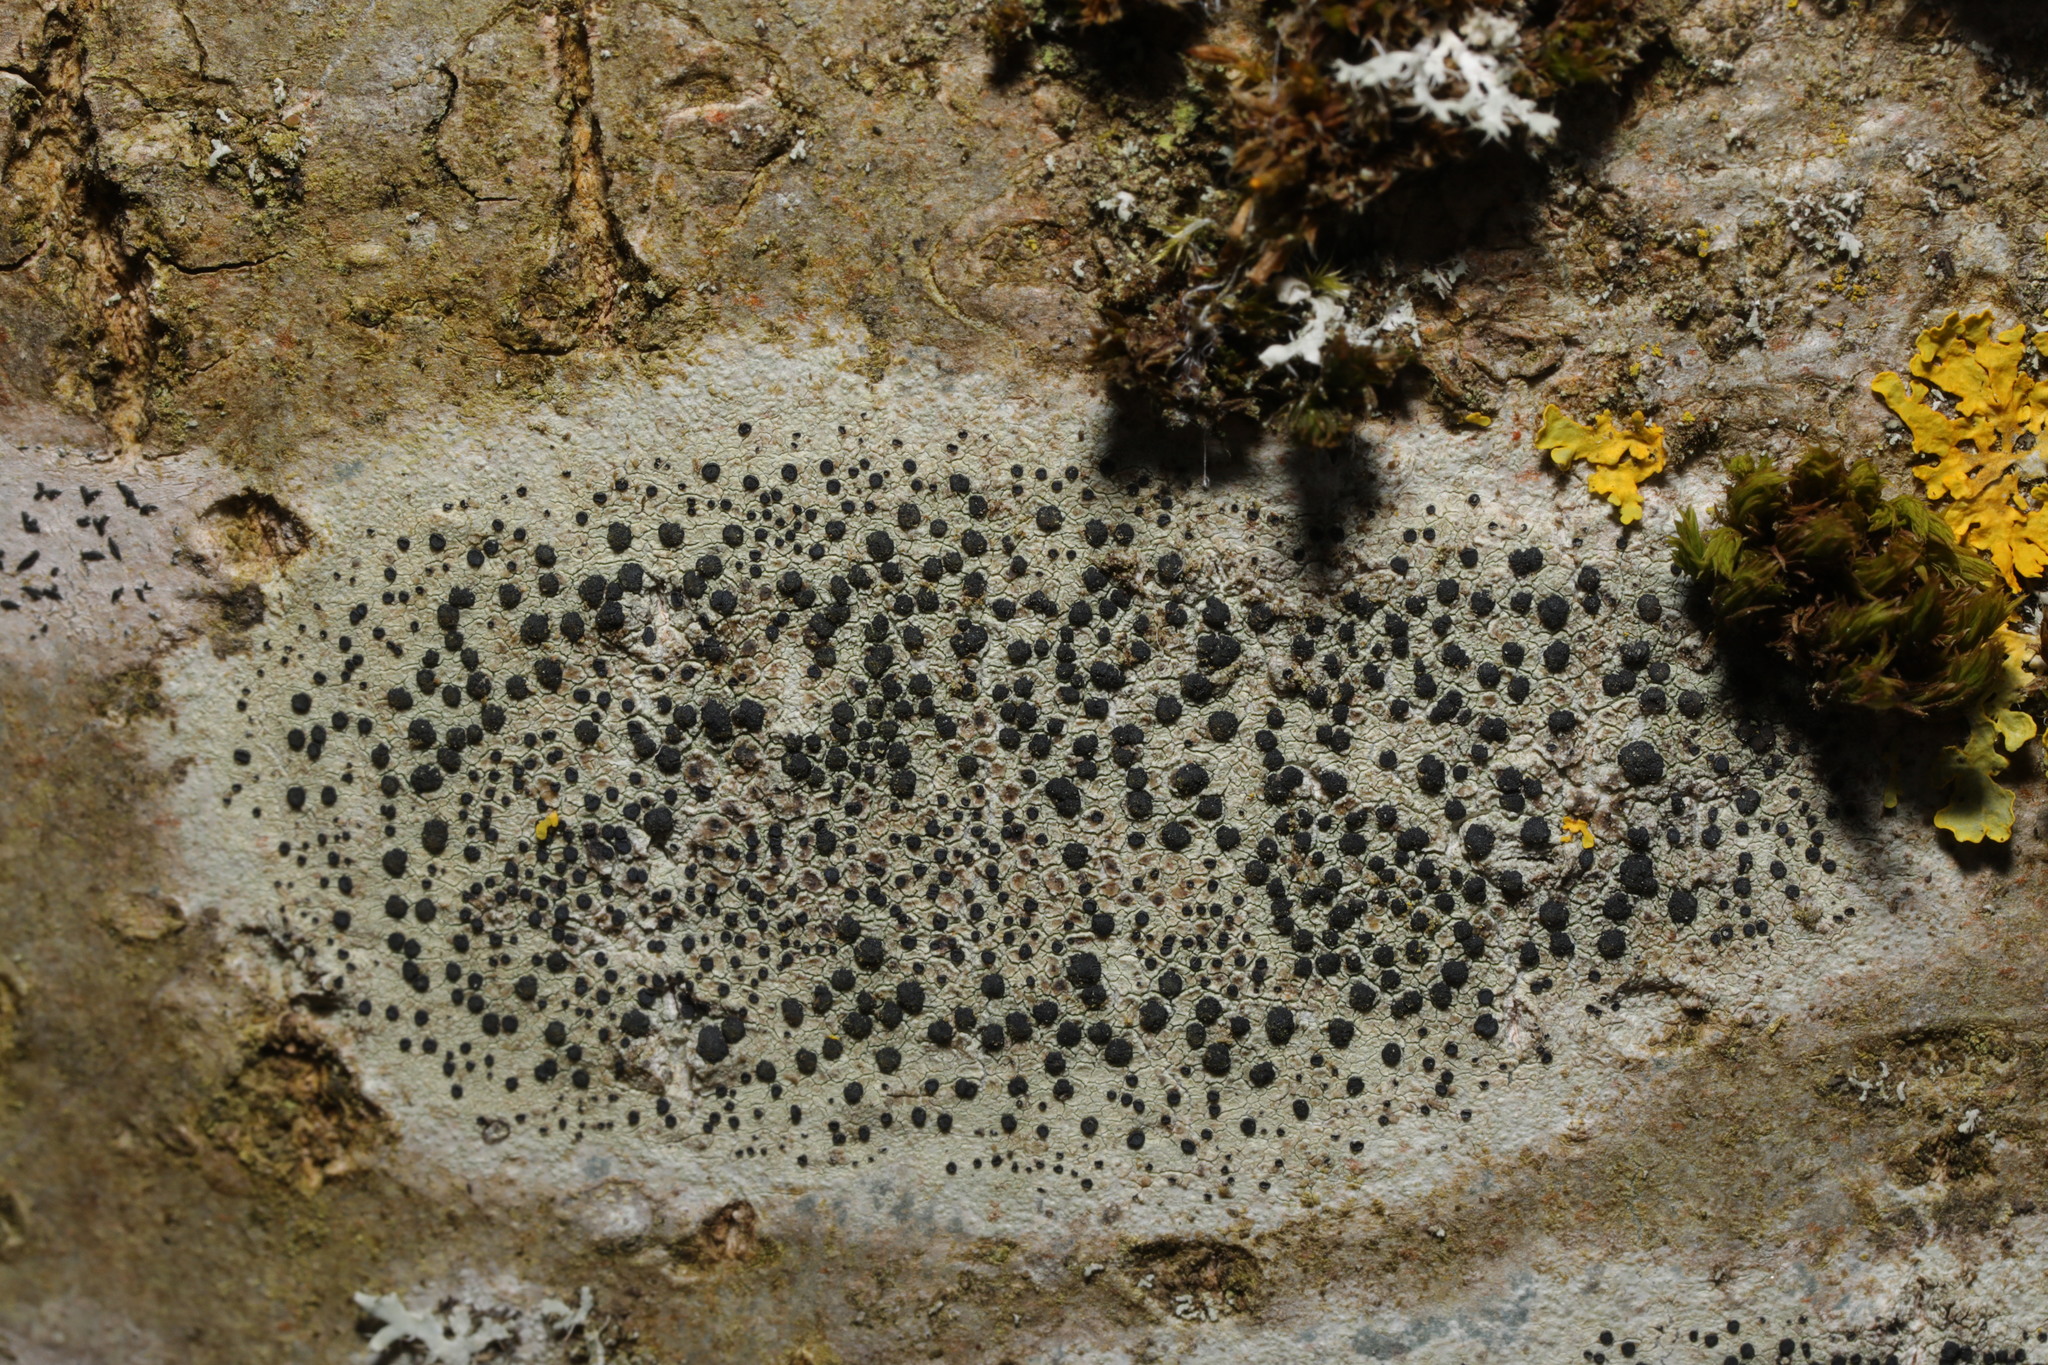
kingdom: Fungi
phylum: Ascomycota
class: Lecanoromycetes
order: Lecanorales
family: Lecanoraceae
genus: Lecidella
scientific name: Lecidella elaeochroma
